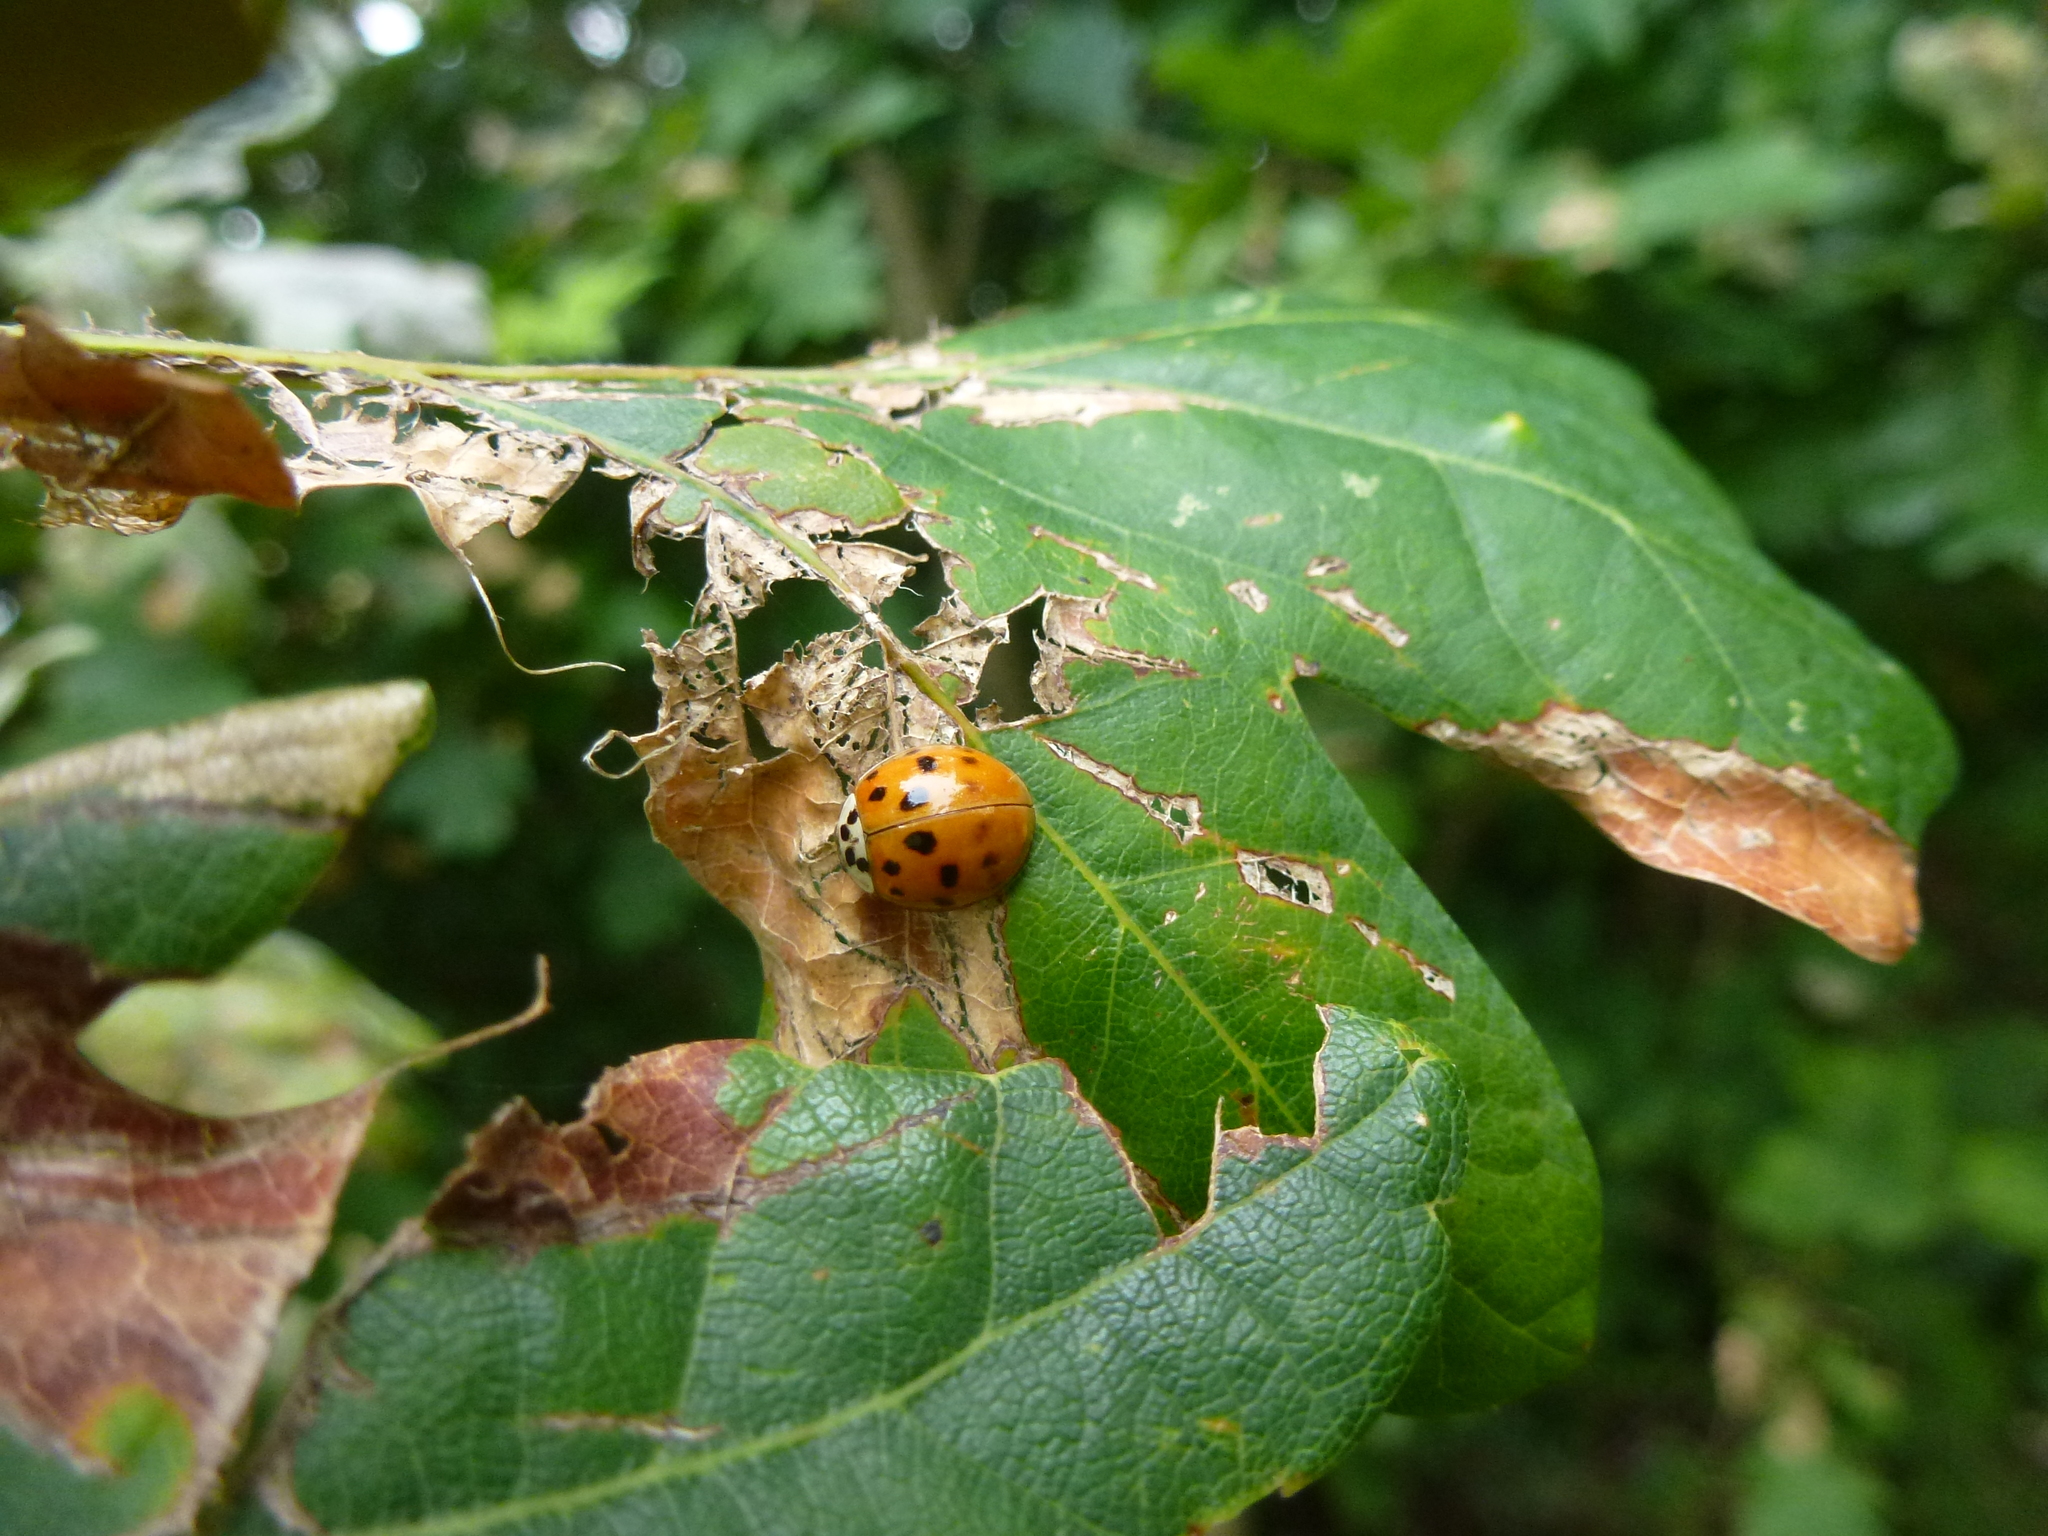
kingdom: Animalia
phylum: Arthropoda
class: Insecta
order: Coleoptera
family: Coccinellidae
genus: Harmonia
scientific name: Harmonia axyridis
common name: Harlequin ladybird
